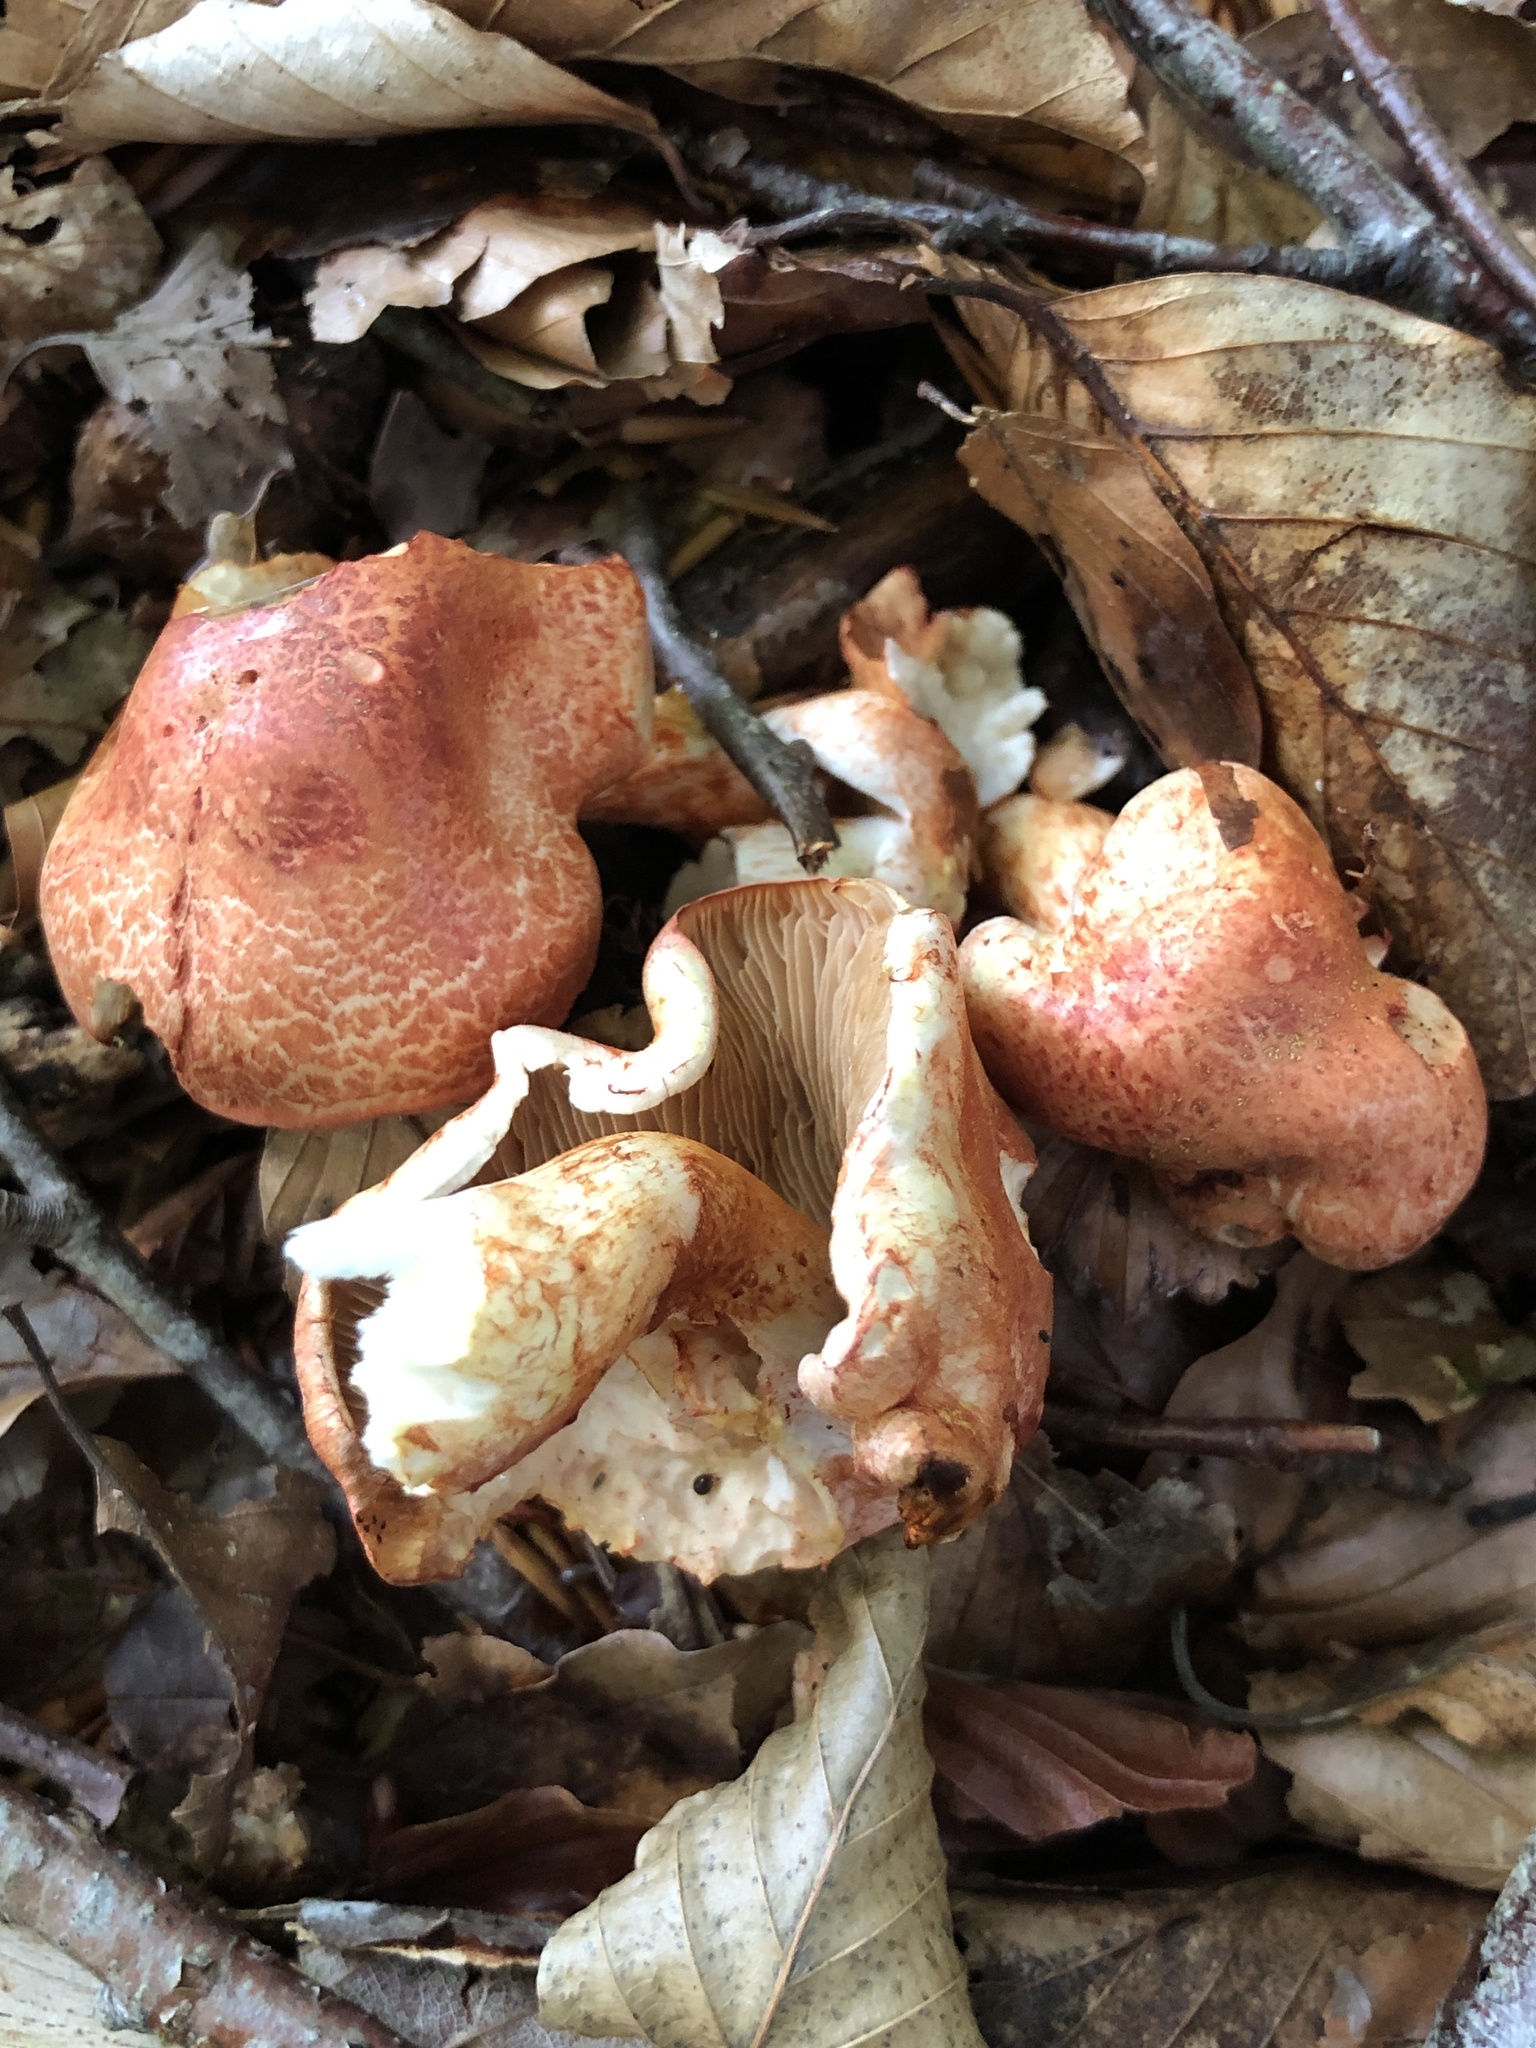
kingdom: Fungi
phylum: Basidiomycota
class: Agaricomycetes
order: Agaricales
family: Cortinariaceae
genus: Cortinarius
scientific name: Cortinarius bolaris
